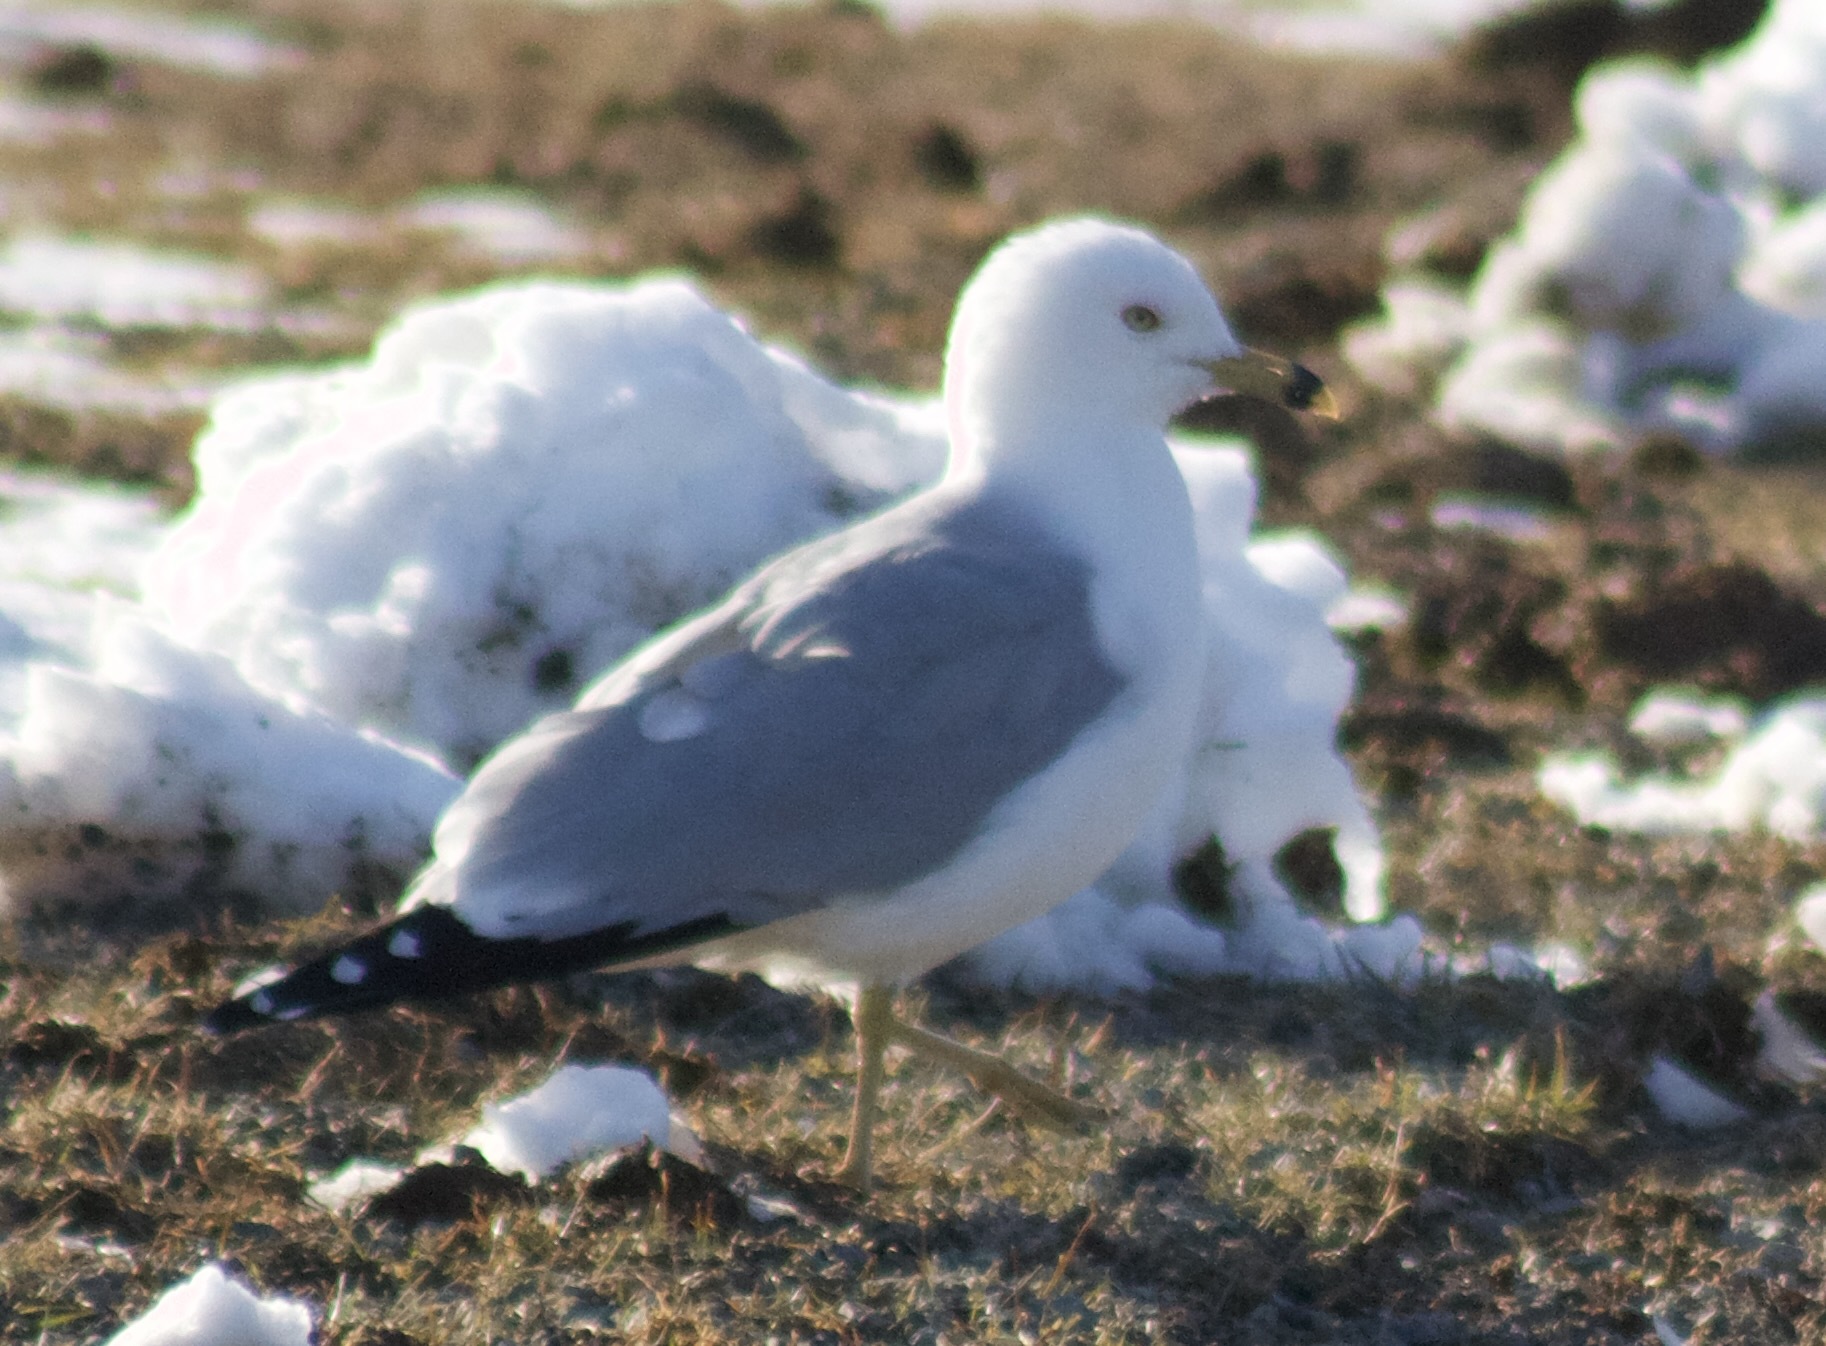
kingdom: Animalia
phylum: Chordata
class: Aves
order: Charadriiformes
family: Laridae
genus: Larus
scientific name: Larus delawarensis
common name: Ring-billed gull
